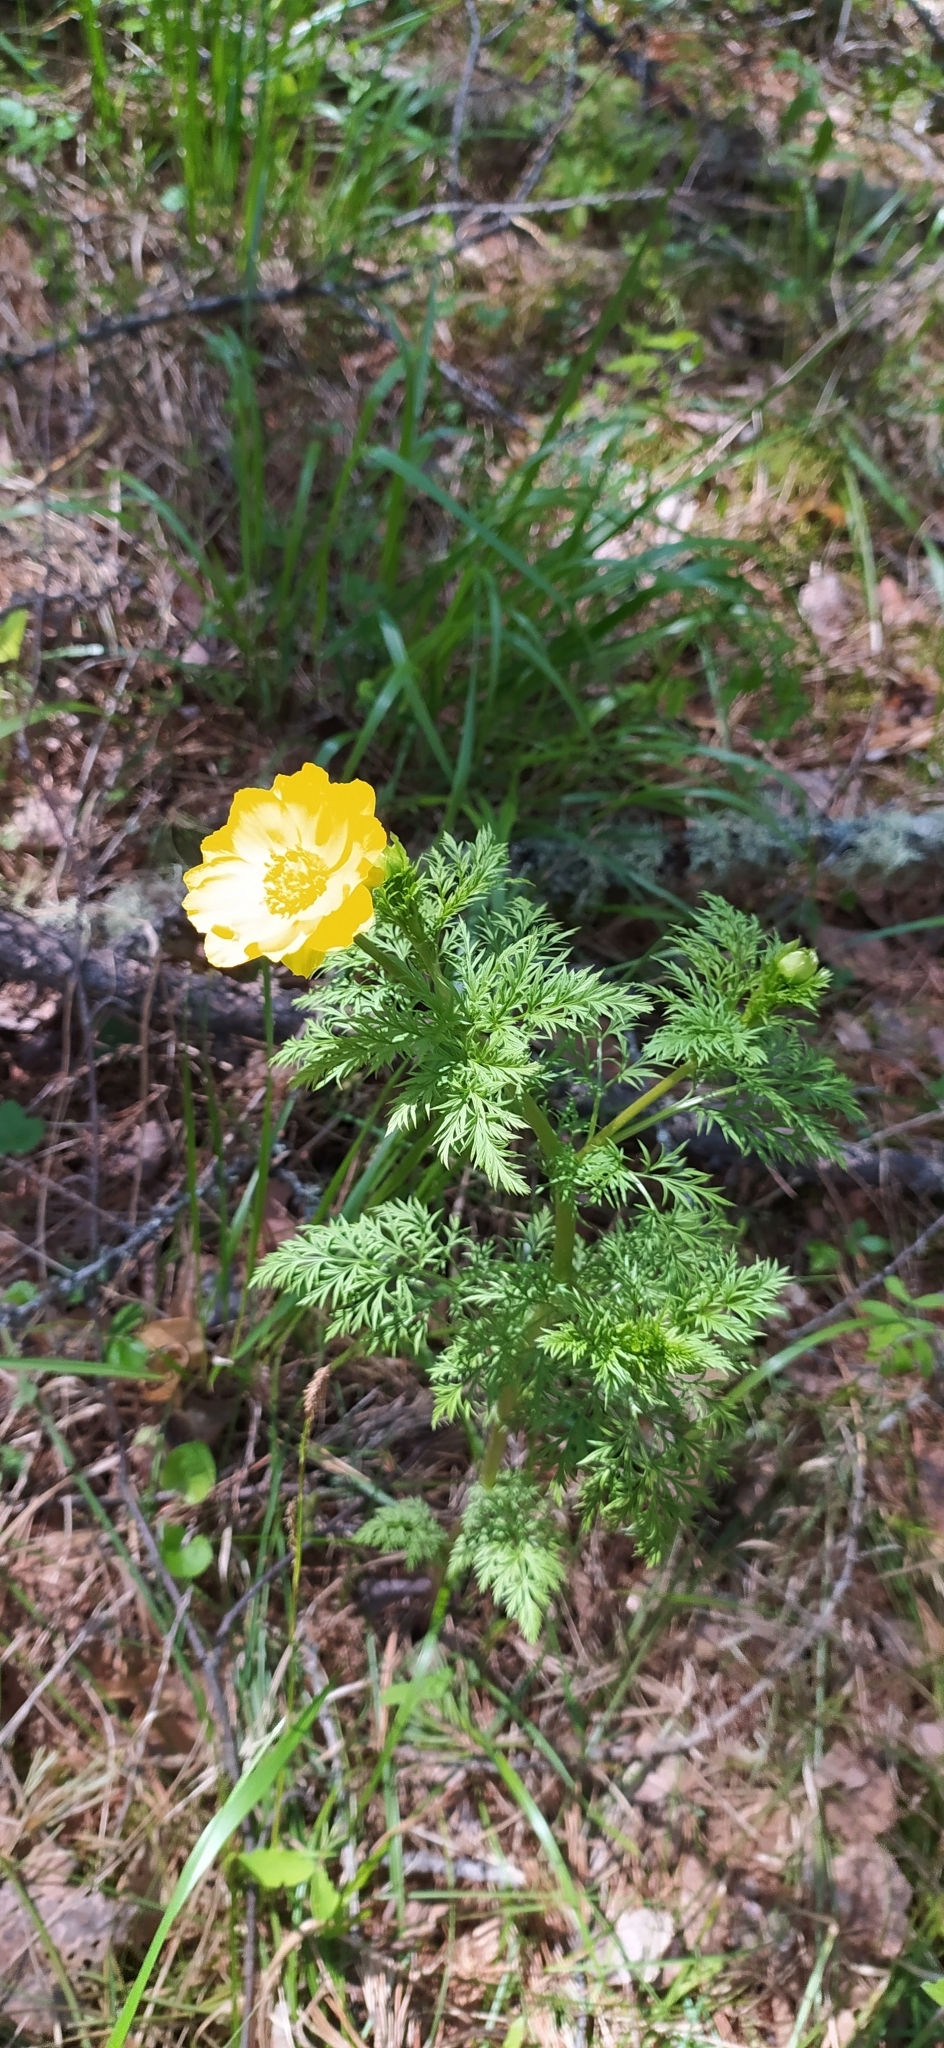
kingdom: Plantae
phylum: Tracheophyta
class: Magnoliopsida
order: Ranunculales
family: Ranunculaceae
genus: Adonis
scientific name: Adonis
